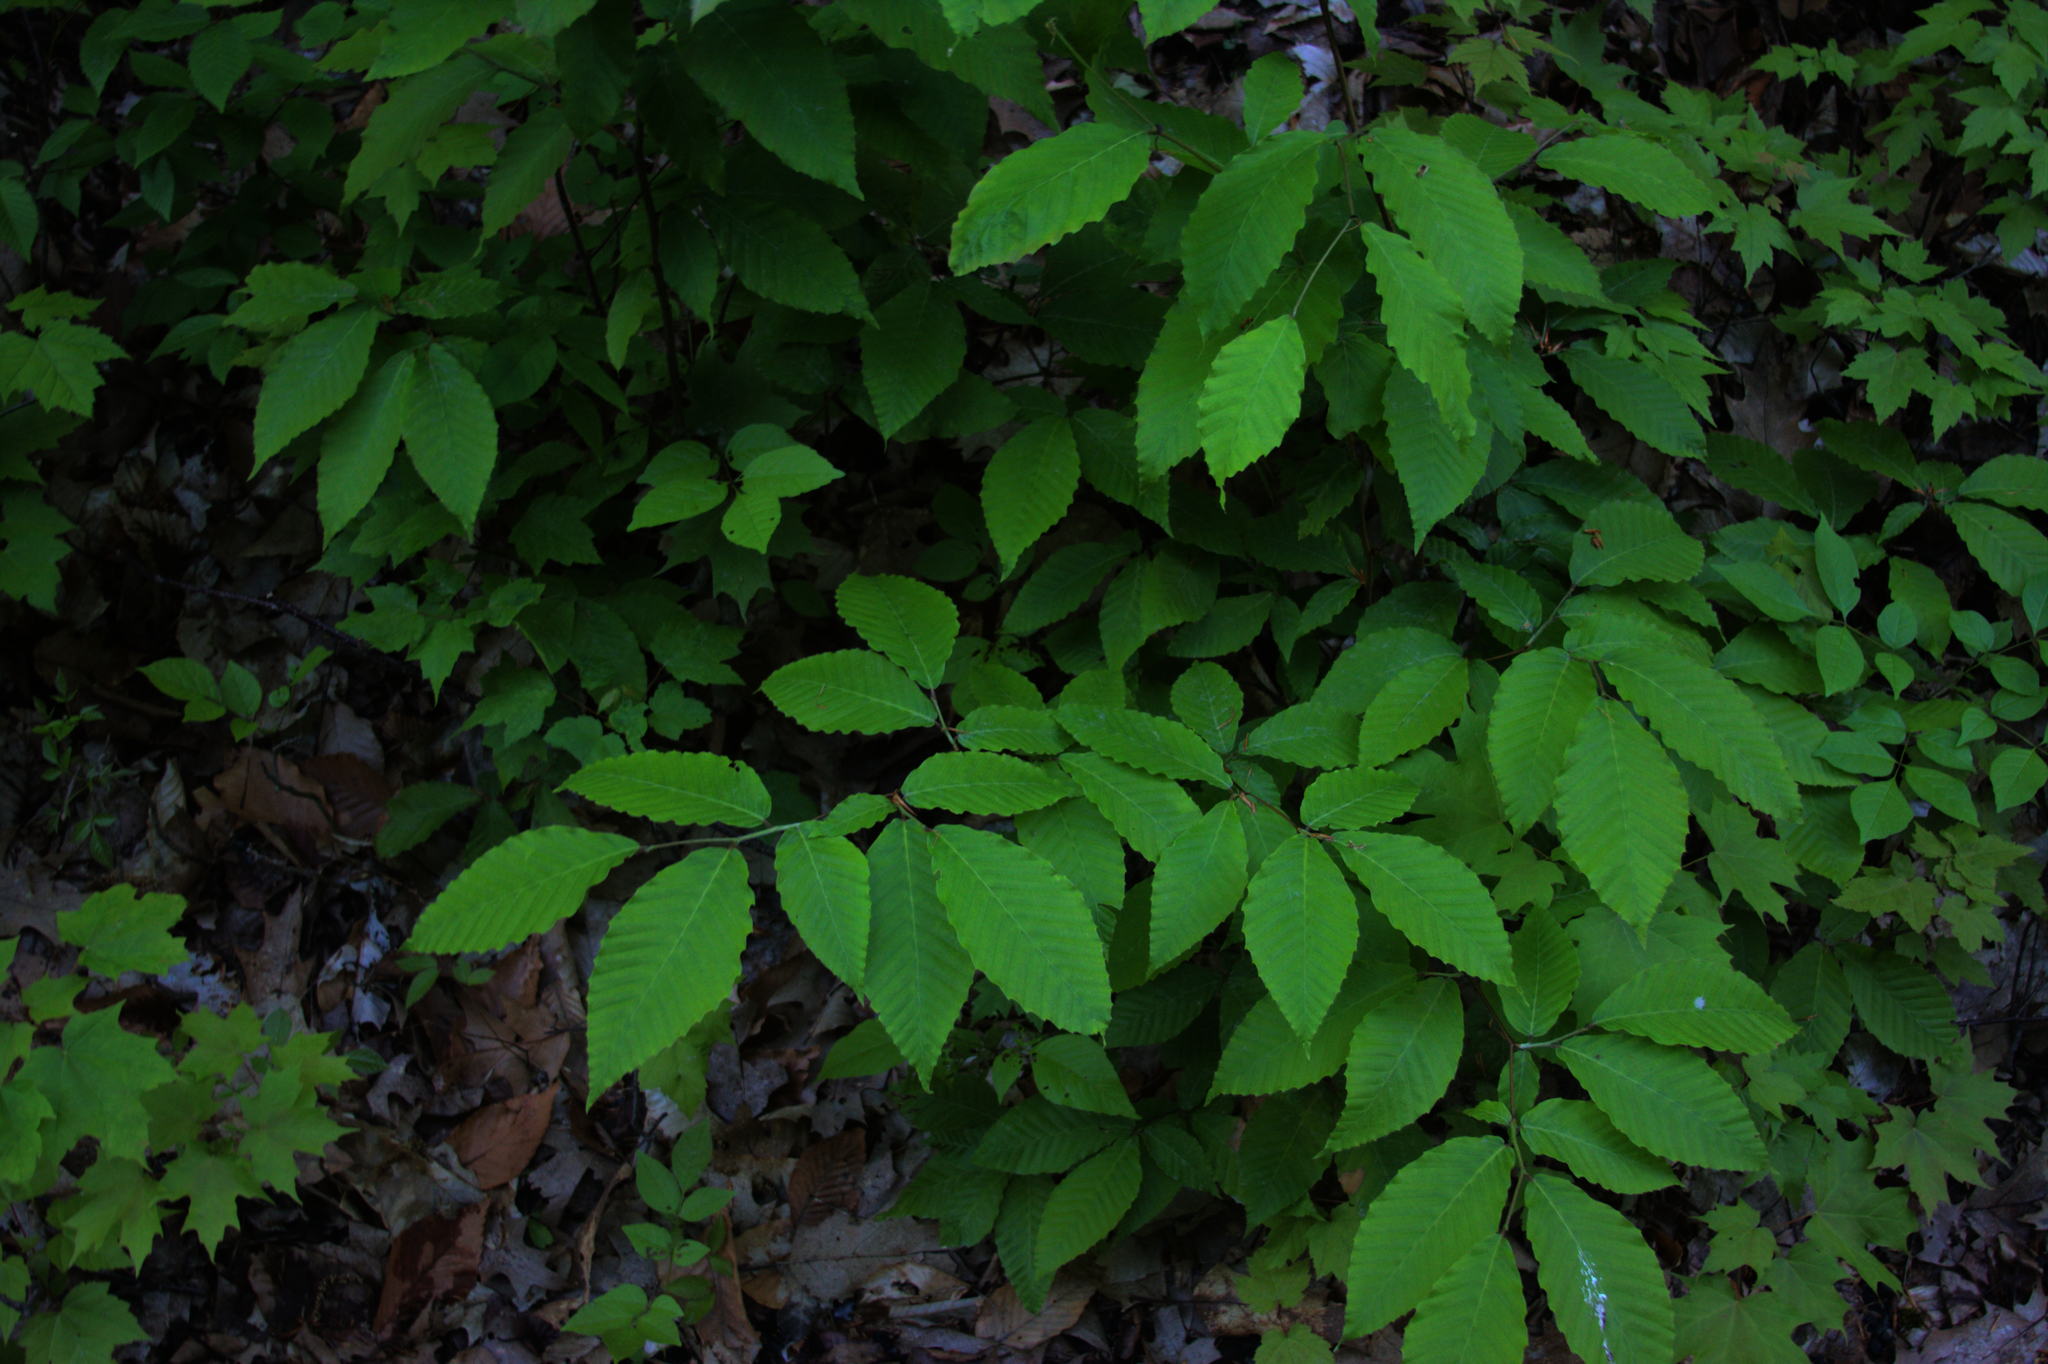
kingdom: Plantae
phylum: Tracheophyta
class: Magnoliopsida
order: Fagales
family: Fagaceae
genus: Fagus
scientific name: Fagus grandifolia
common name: American beech
